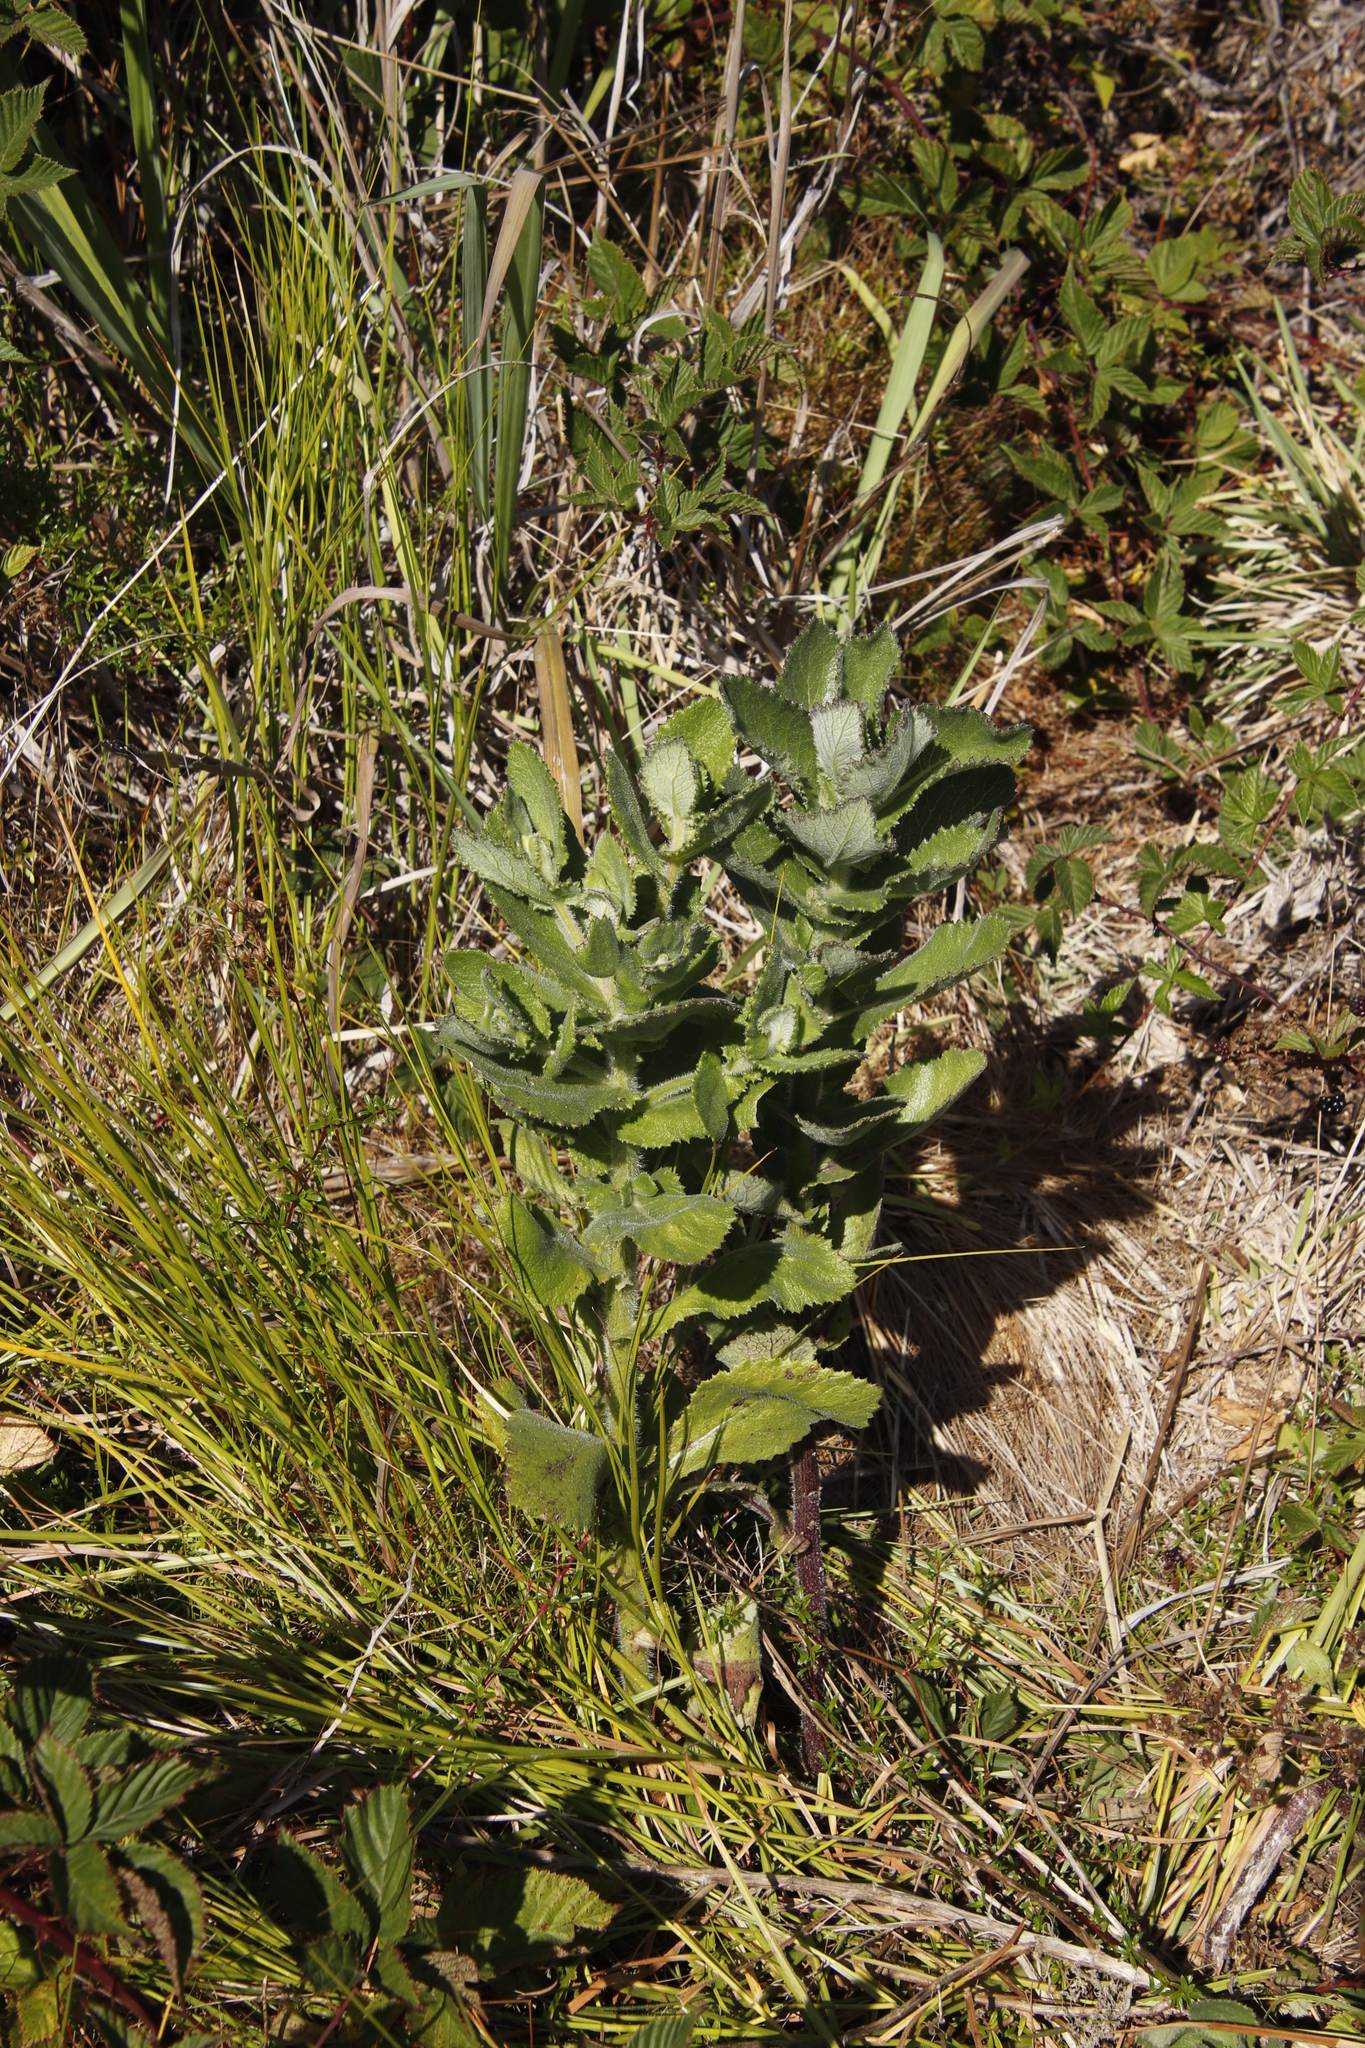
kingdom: Plantae
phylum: Tracheophyta
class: Magnoliopsida
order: Asterales
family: Asteraceae
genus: Senecio
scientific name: Senecio subcanescens
